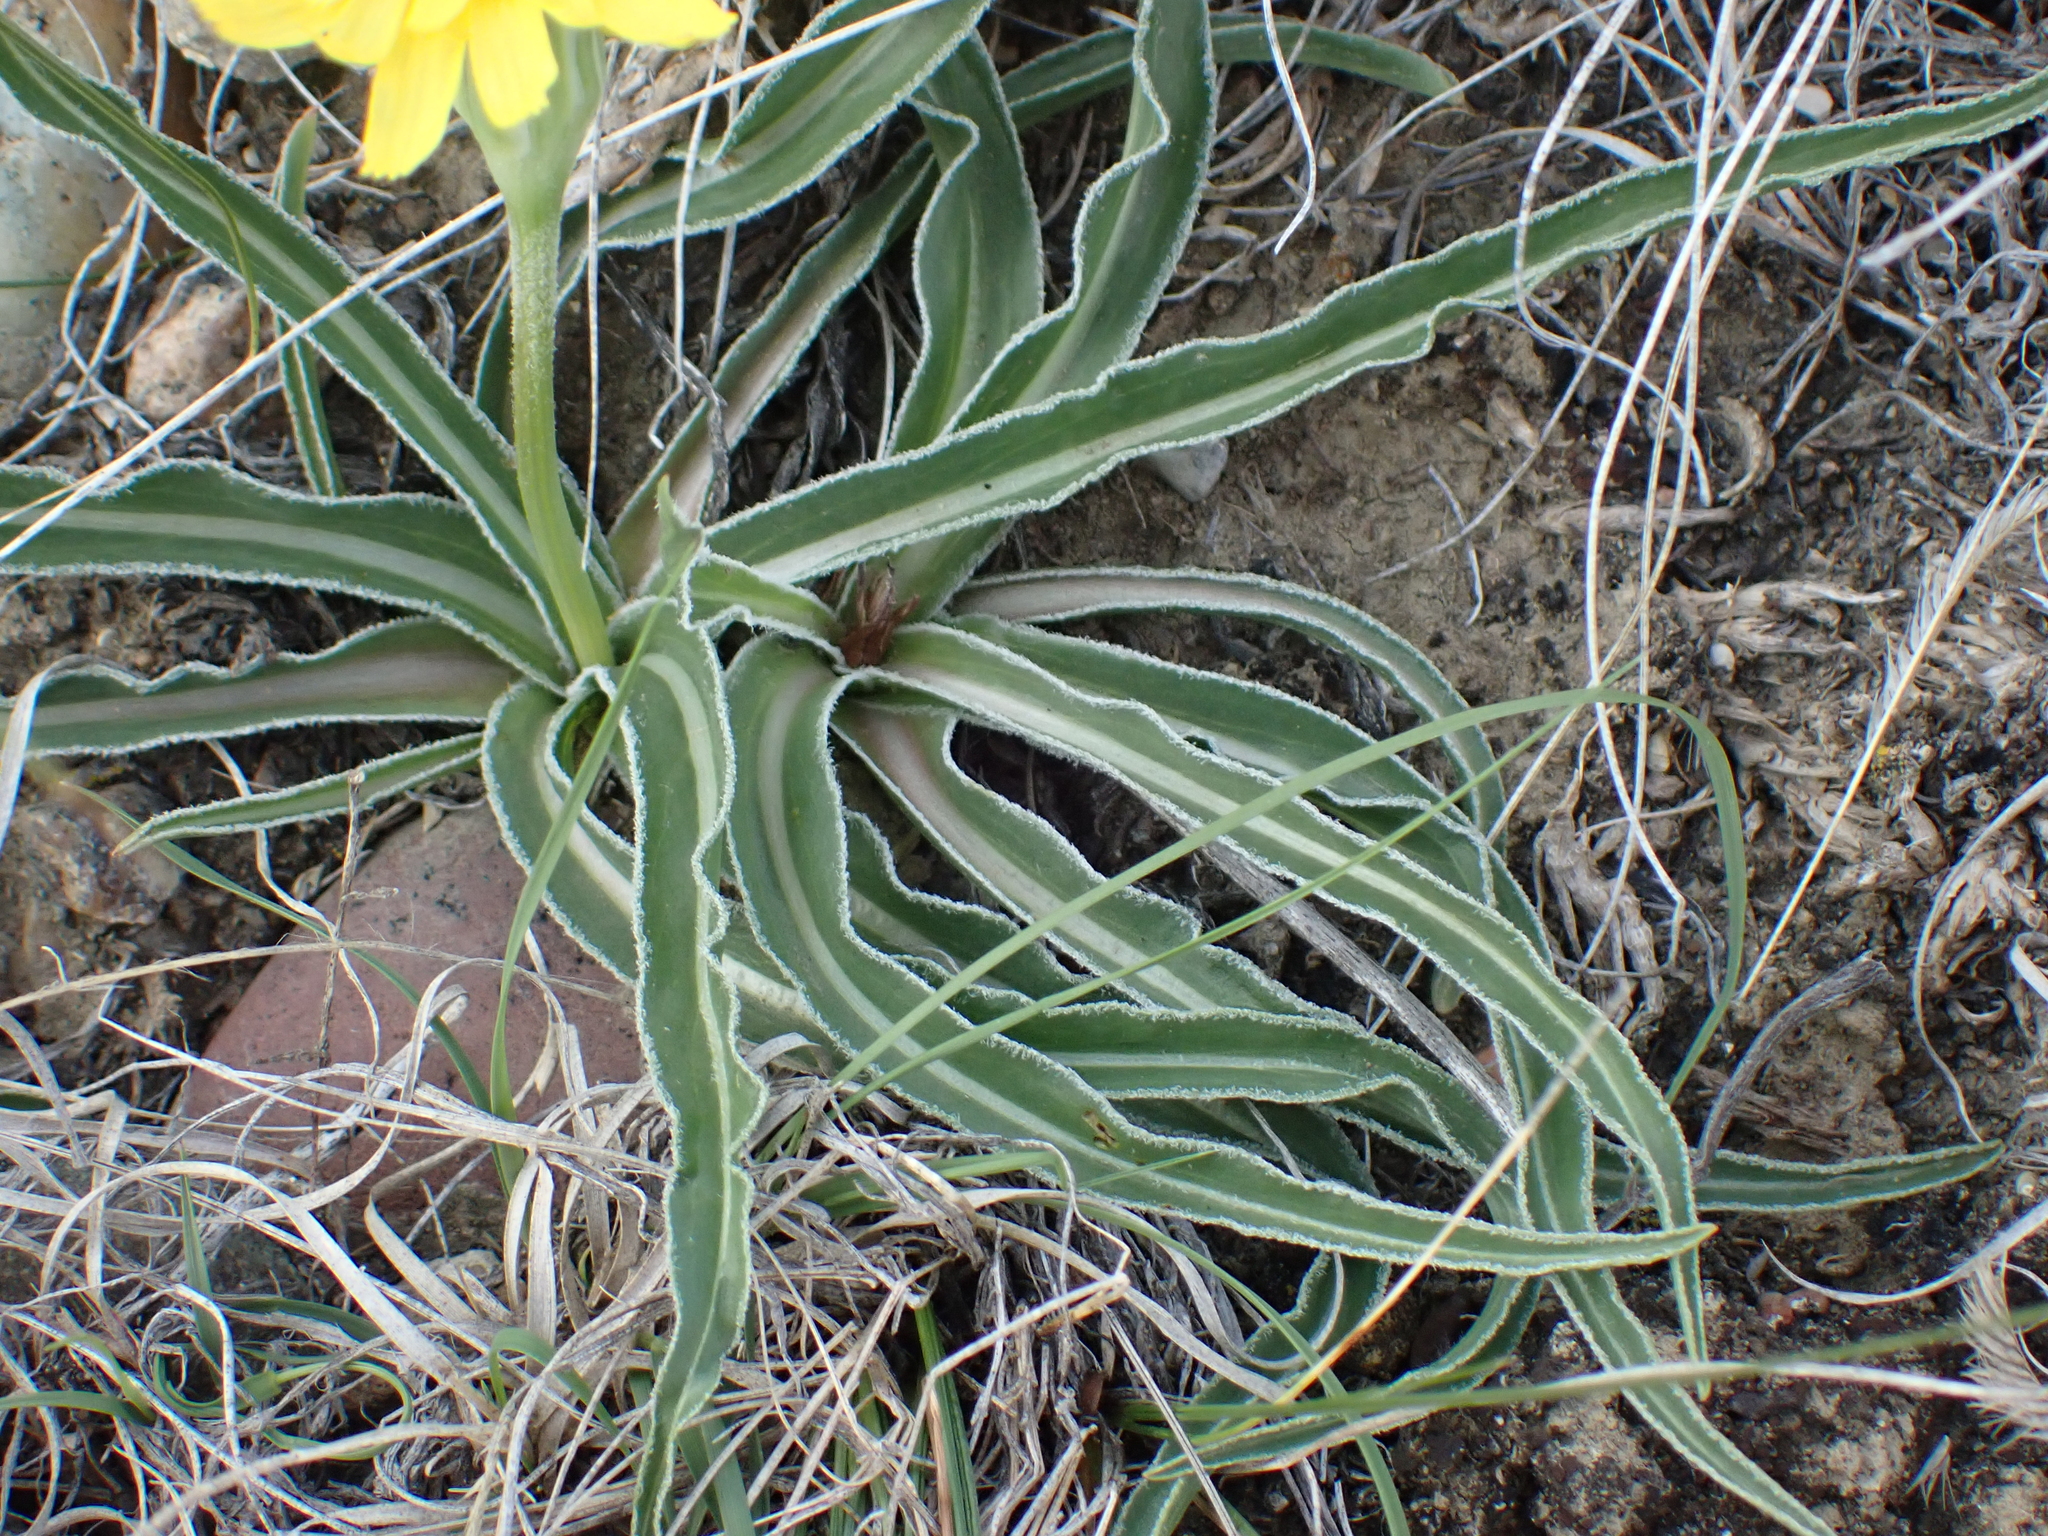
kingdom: Plantae
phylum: Tracheophyta
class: Magnoliopsida
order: Asterales
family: Asteraceae
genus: Microseris
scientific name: Microseris cuspidata
